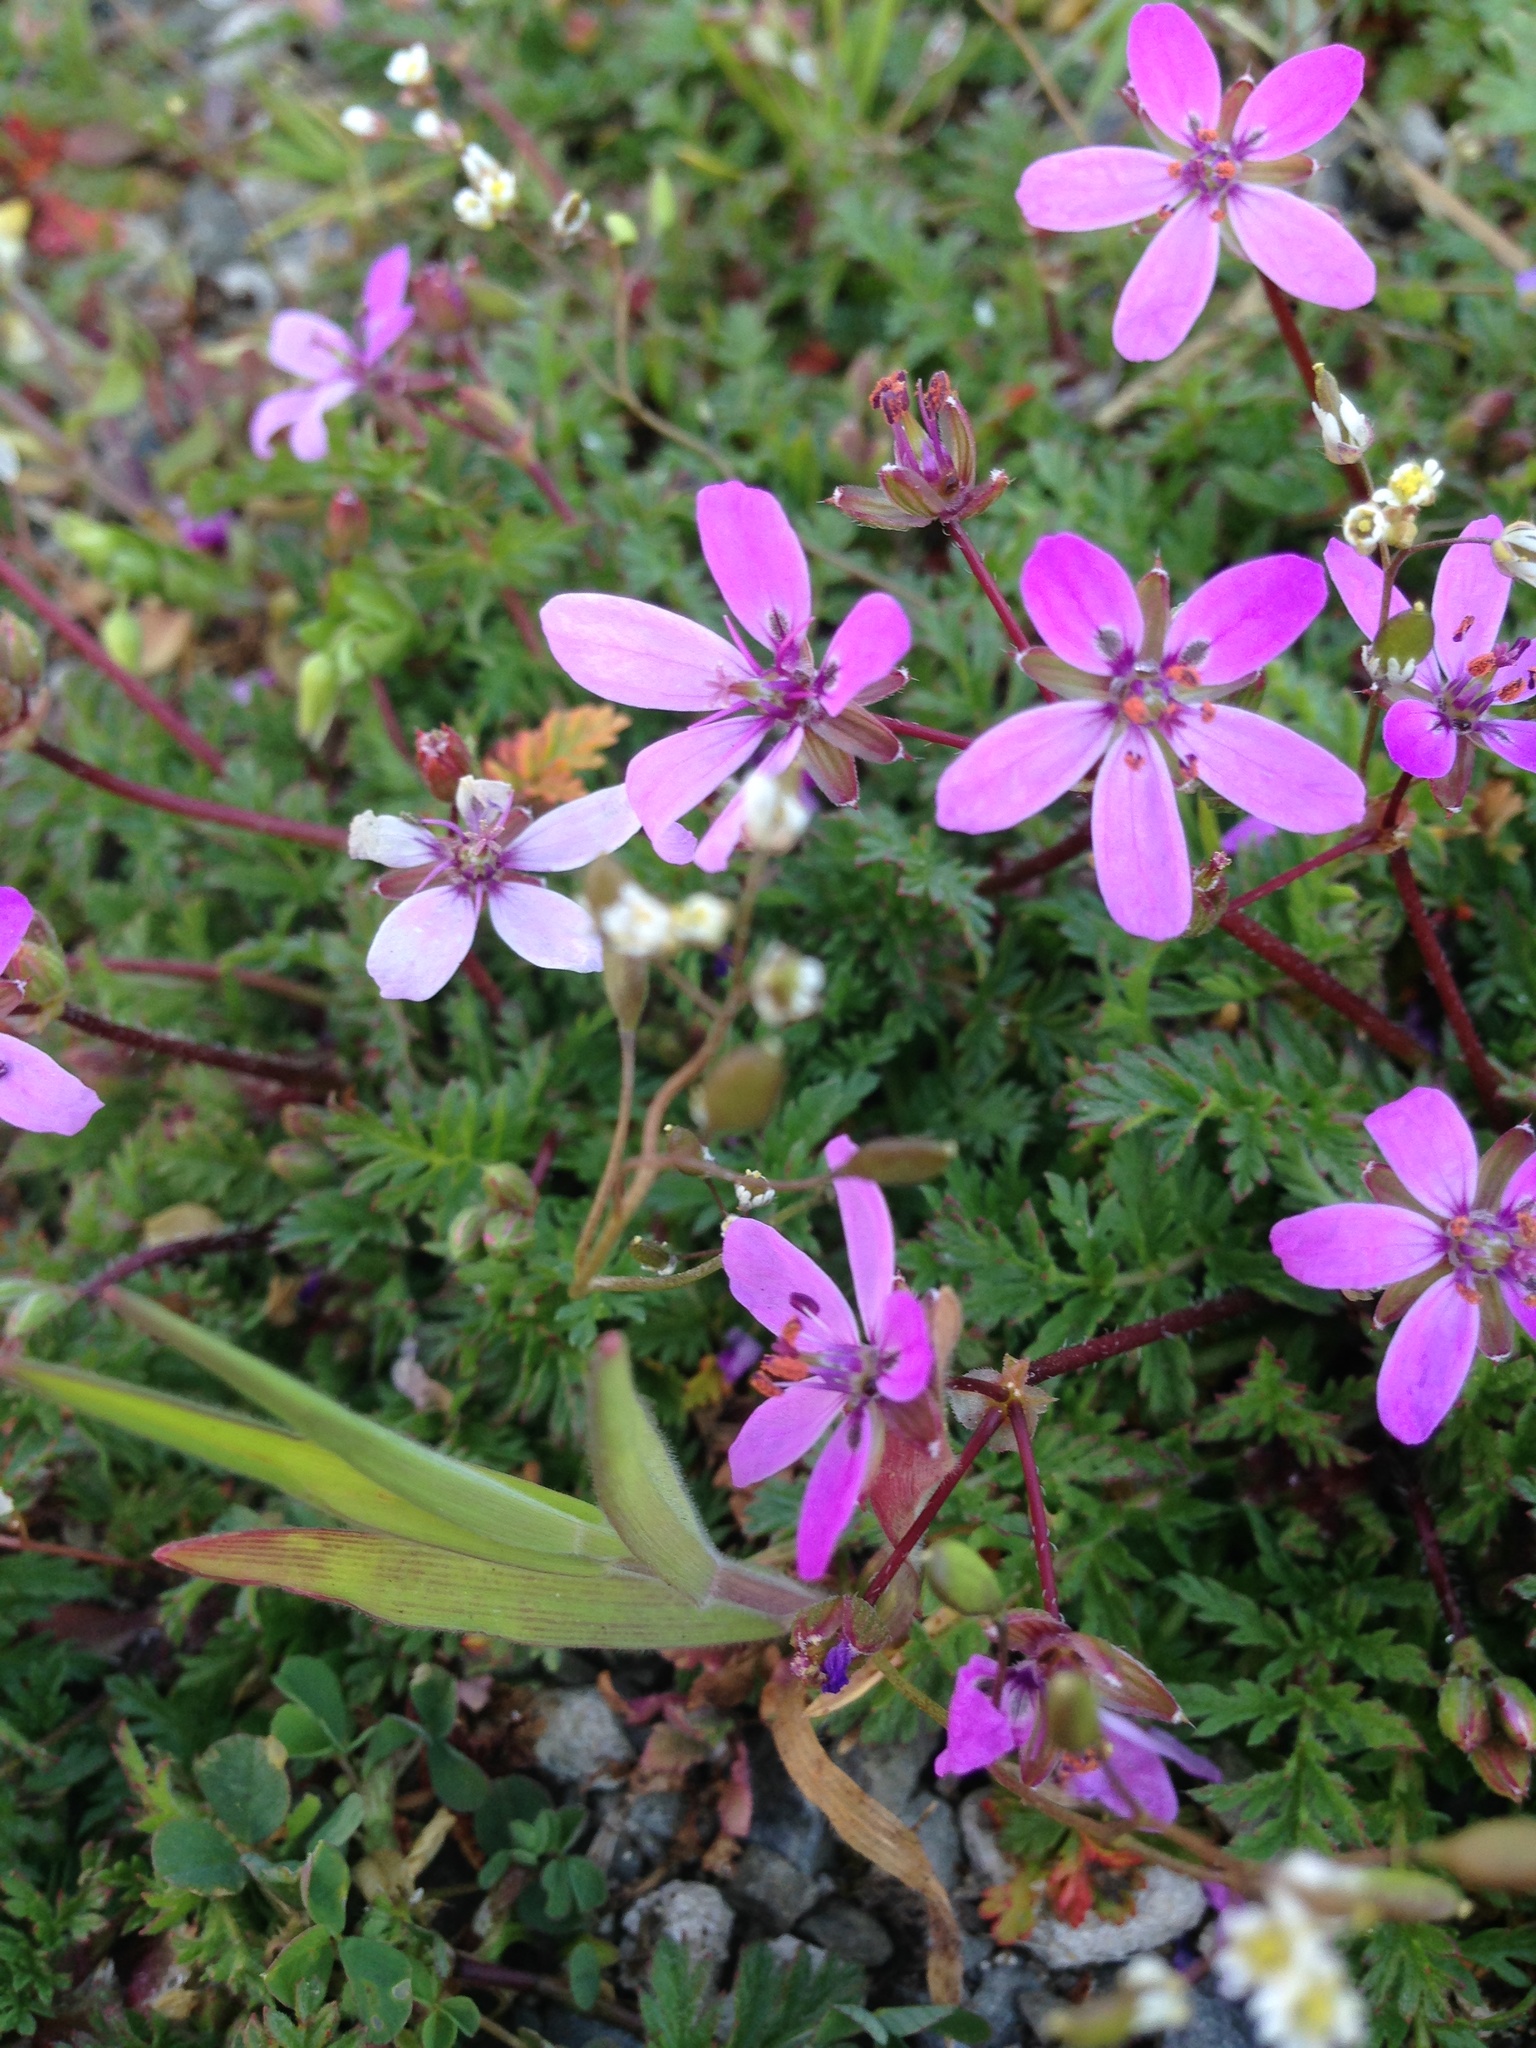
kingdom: Plantae
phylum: Tracheophyta
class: Magnoliopsida
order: Geraniales
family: Geraniaceae
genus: Erodium
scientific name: Erodium cicutarium
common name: Common stork's-bill
